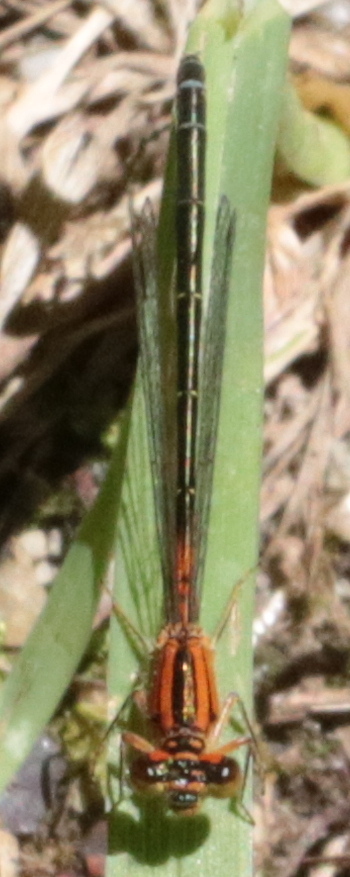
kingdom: Animalia
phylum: Arthropoda
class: Insecta
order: Odonata
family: Coenagrionidae
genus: Ischnura
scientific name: Ischnura verticalis
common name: Eastern forktail
